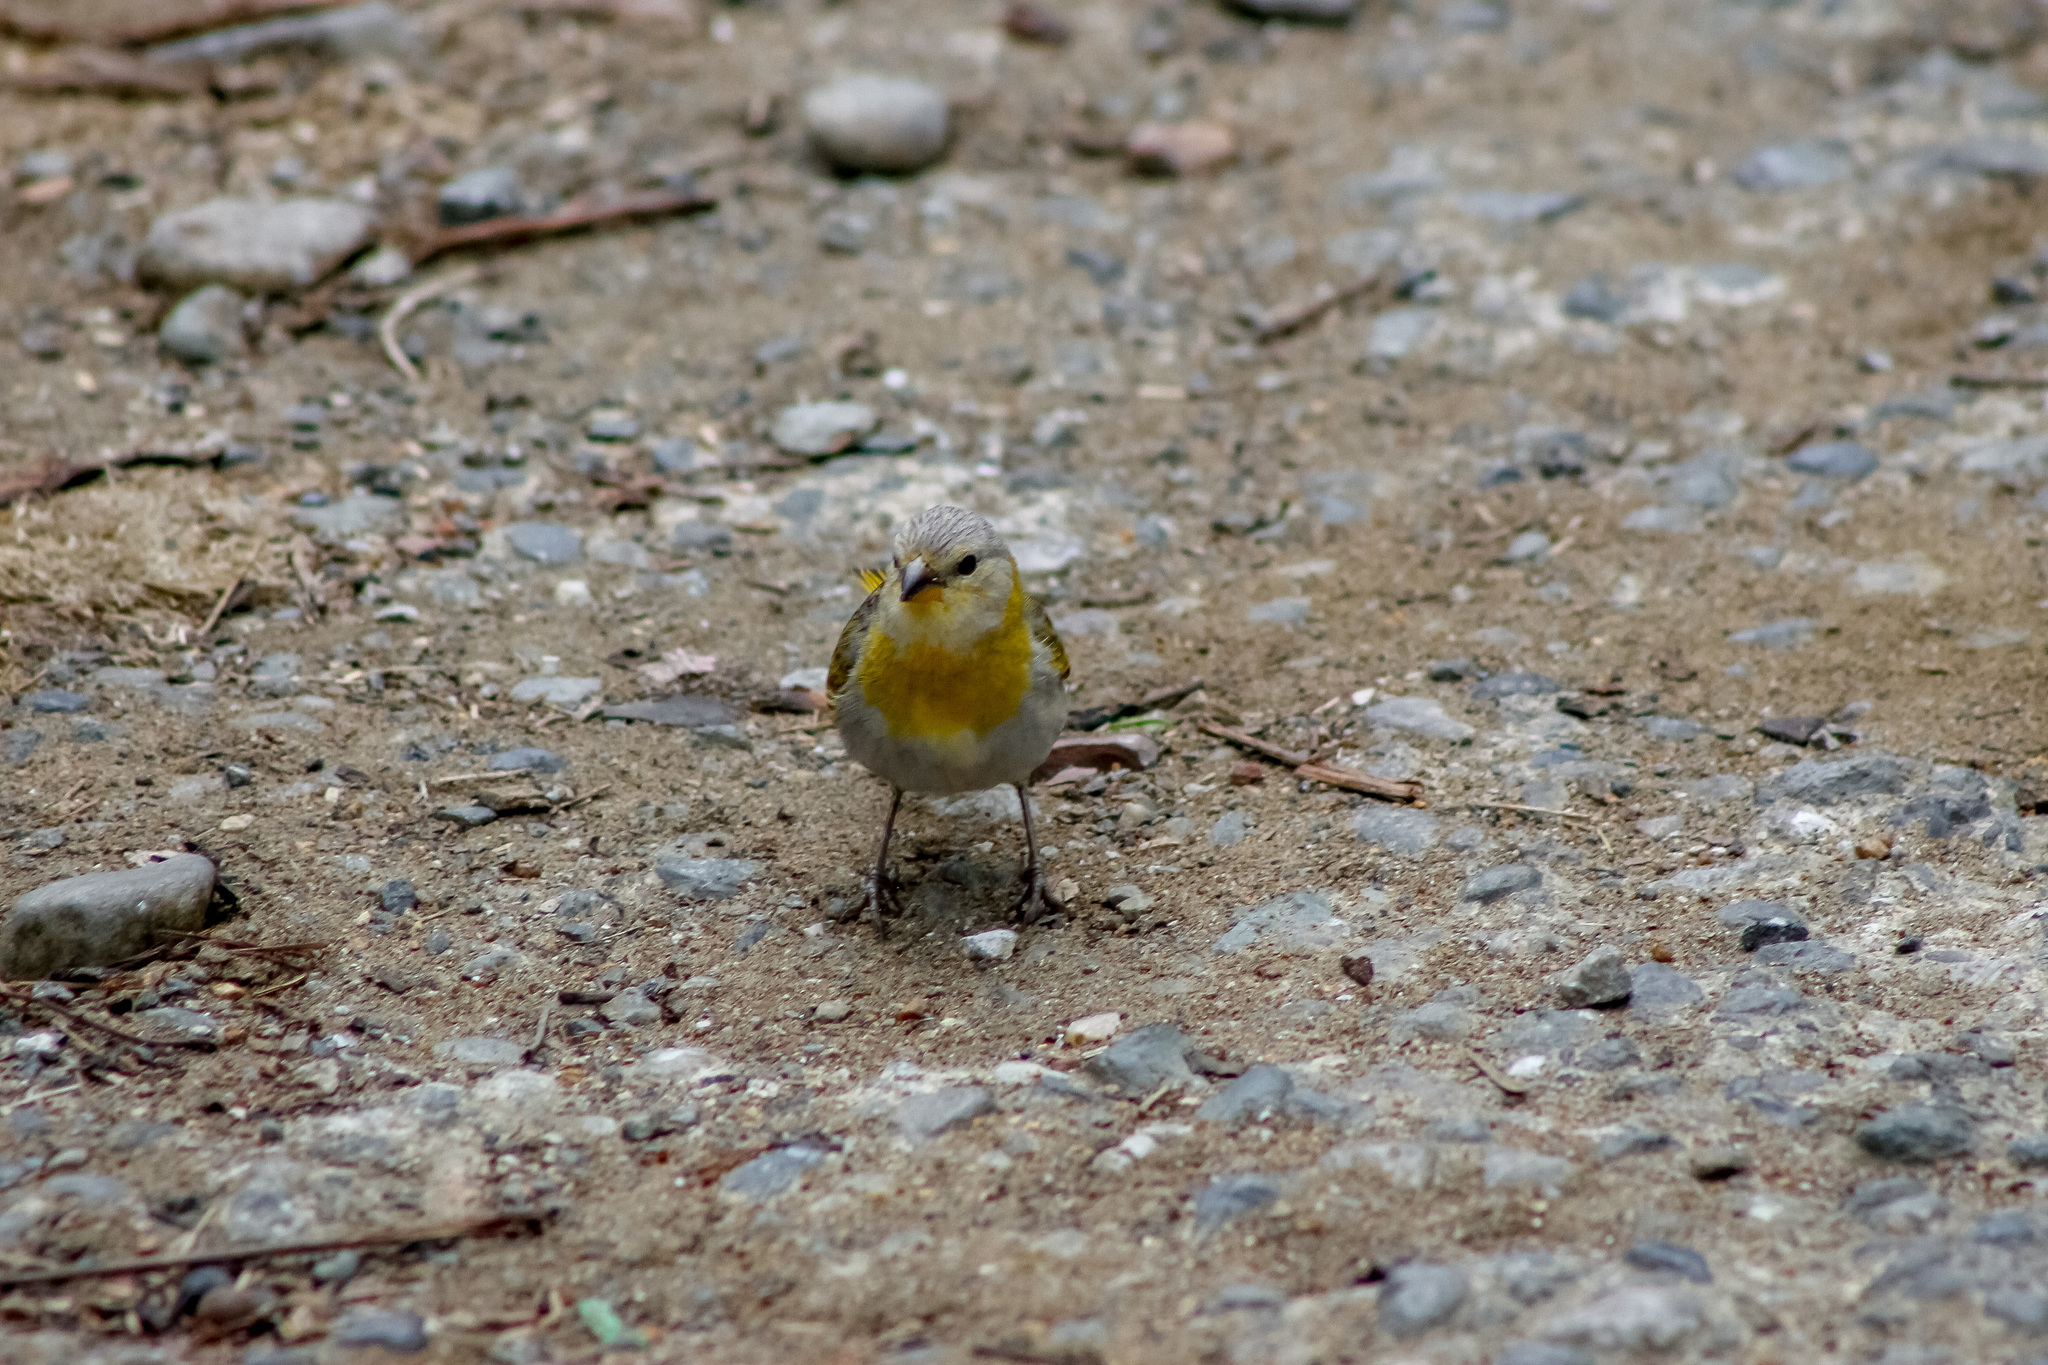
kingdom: Animalia
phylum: Chordata
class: Aves
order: Passeriformes
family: Thraupidae
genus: Sicalis
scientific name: Sicalis flaveola
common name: Saffron finch
